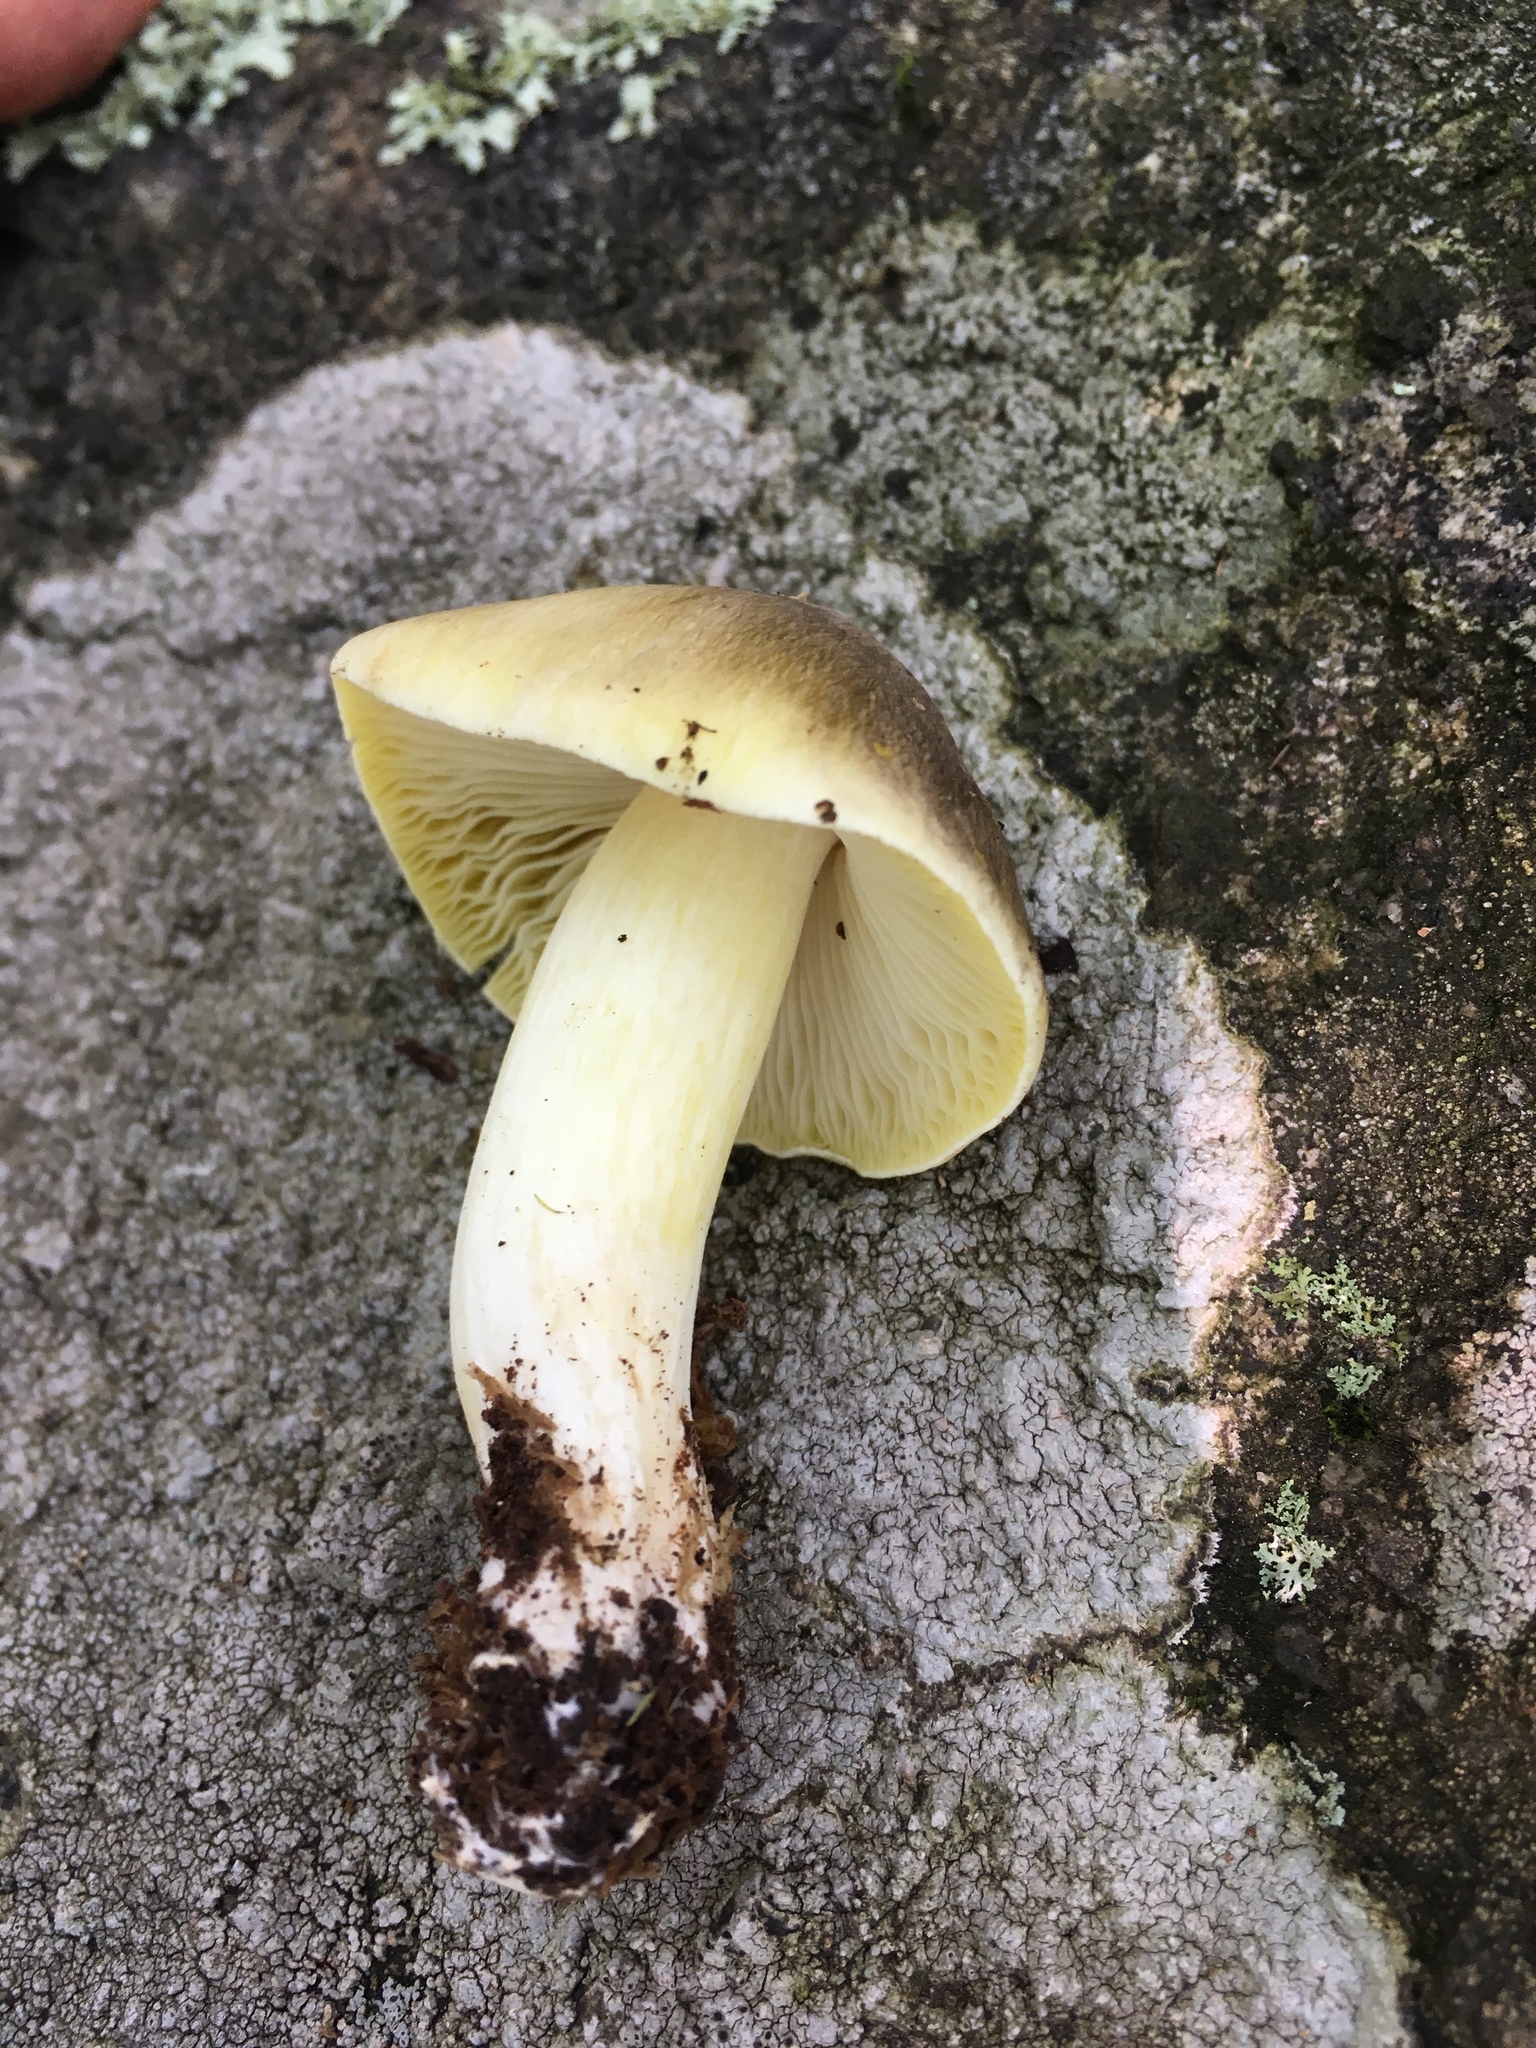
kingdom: Fungi
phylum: Basidiomycota
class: Agaricomycetes
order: Agaricales
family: Tricholomataceae
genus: Tricholoma
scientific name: Tricholoma sejunctum
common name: Deceiving knight
